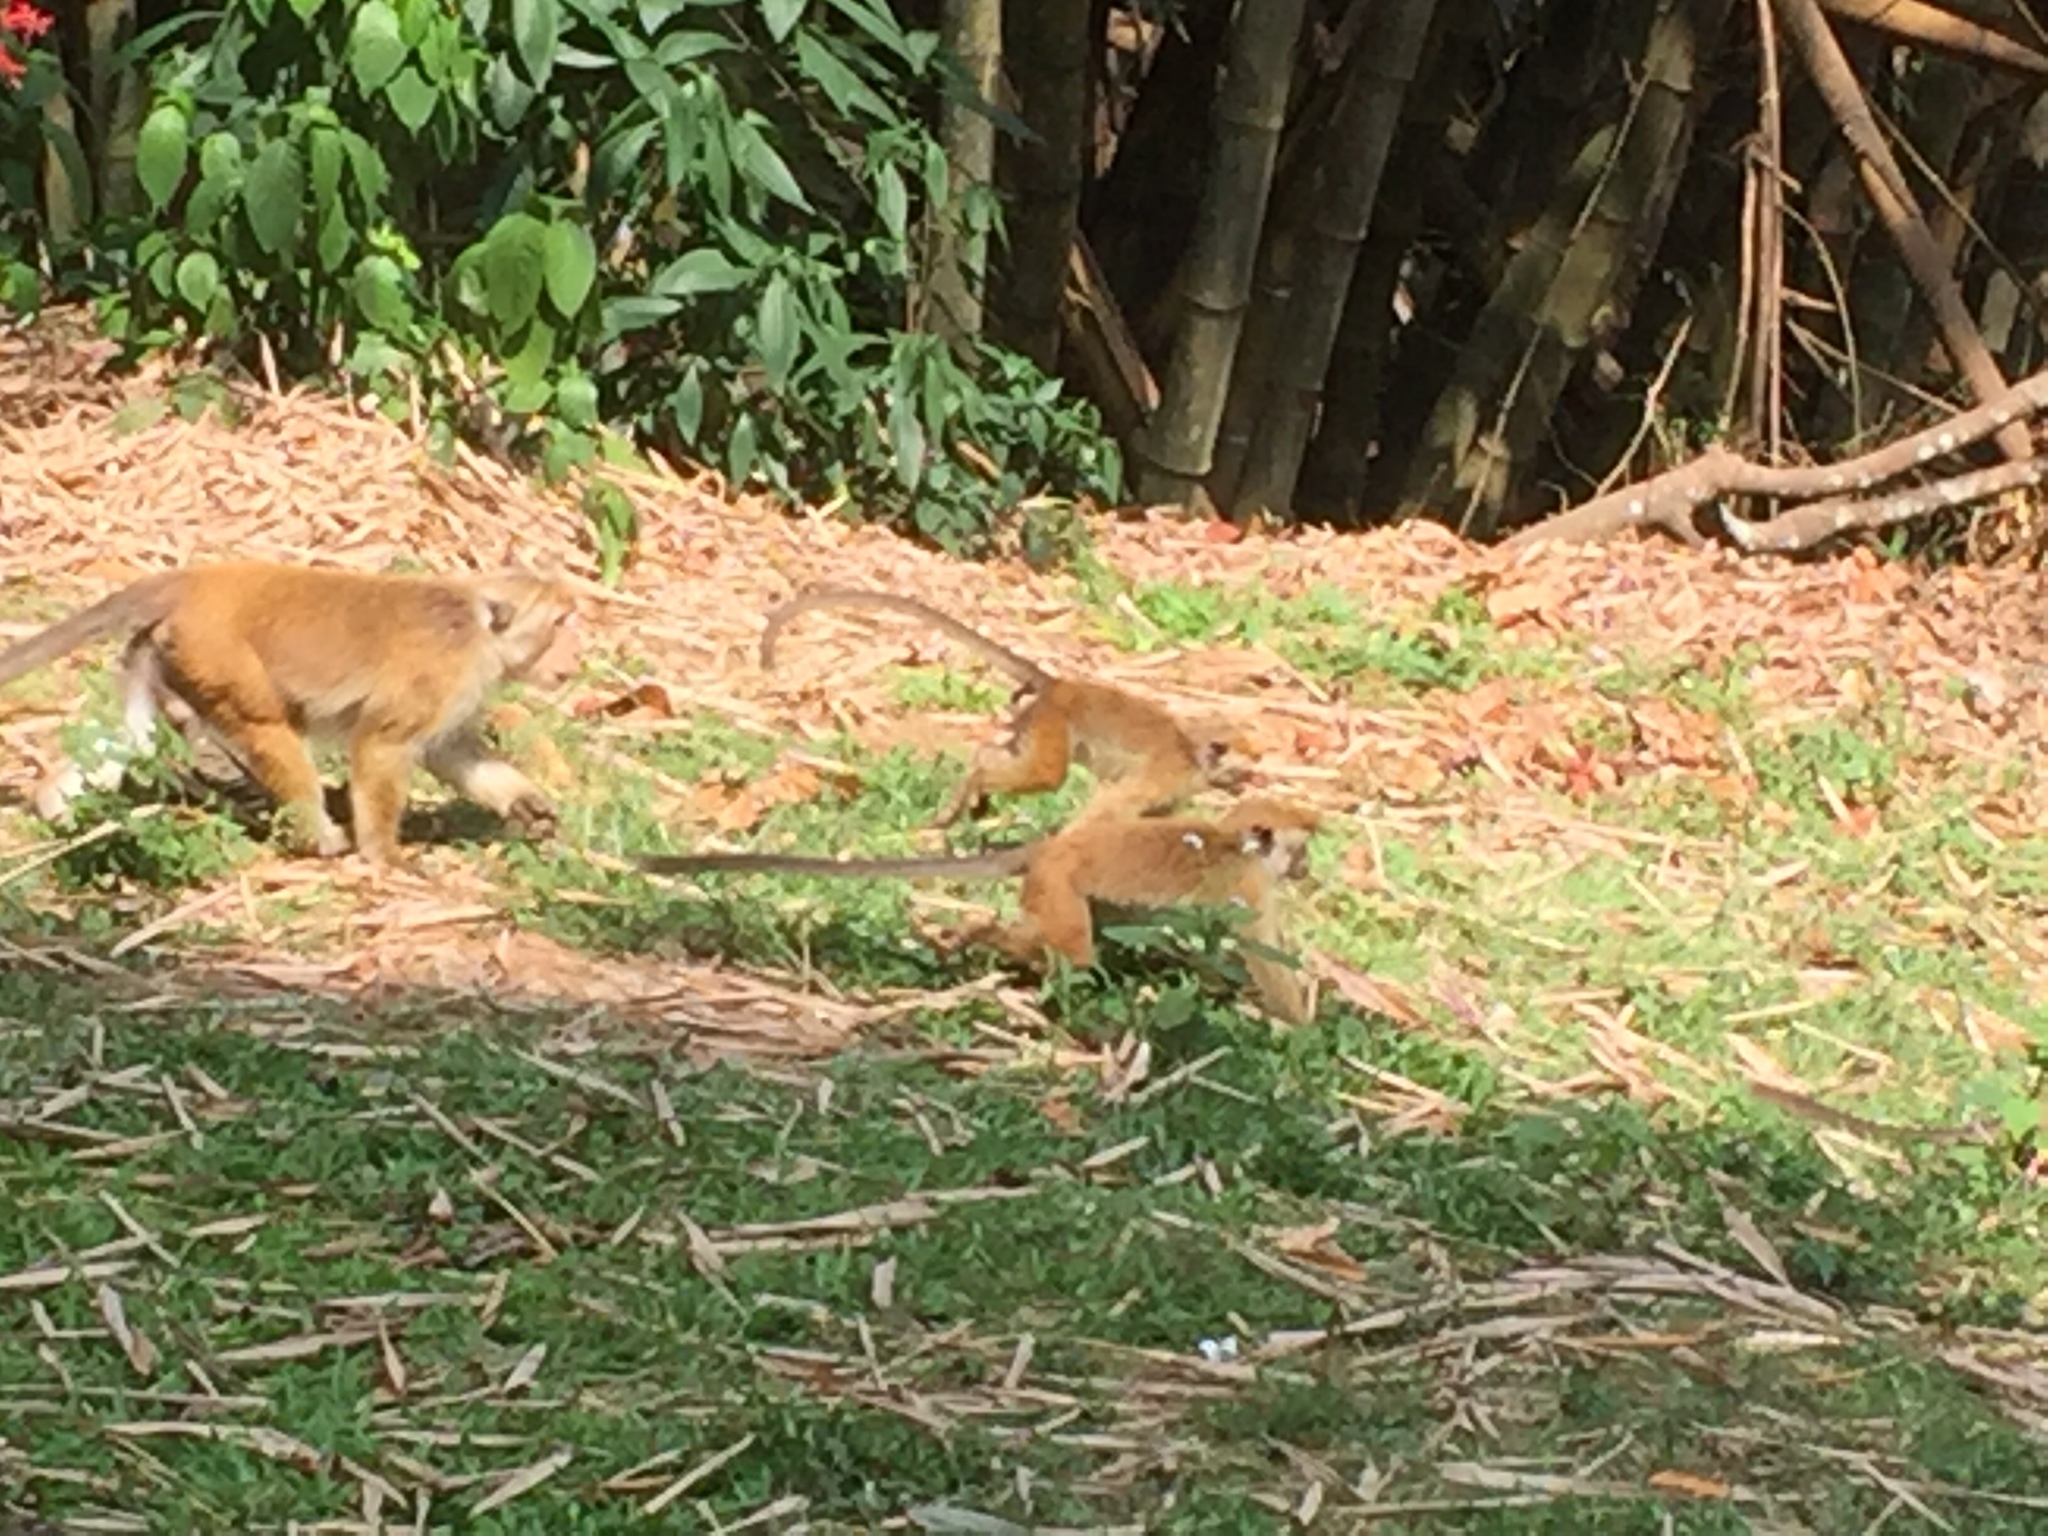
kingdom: Animalia
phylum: Chordata
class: Mammalia
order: Primates
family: Cercopithecidae
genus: Macaca
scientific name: Macaca sinica
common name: Toque macaque
